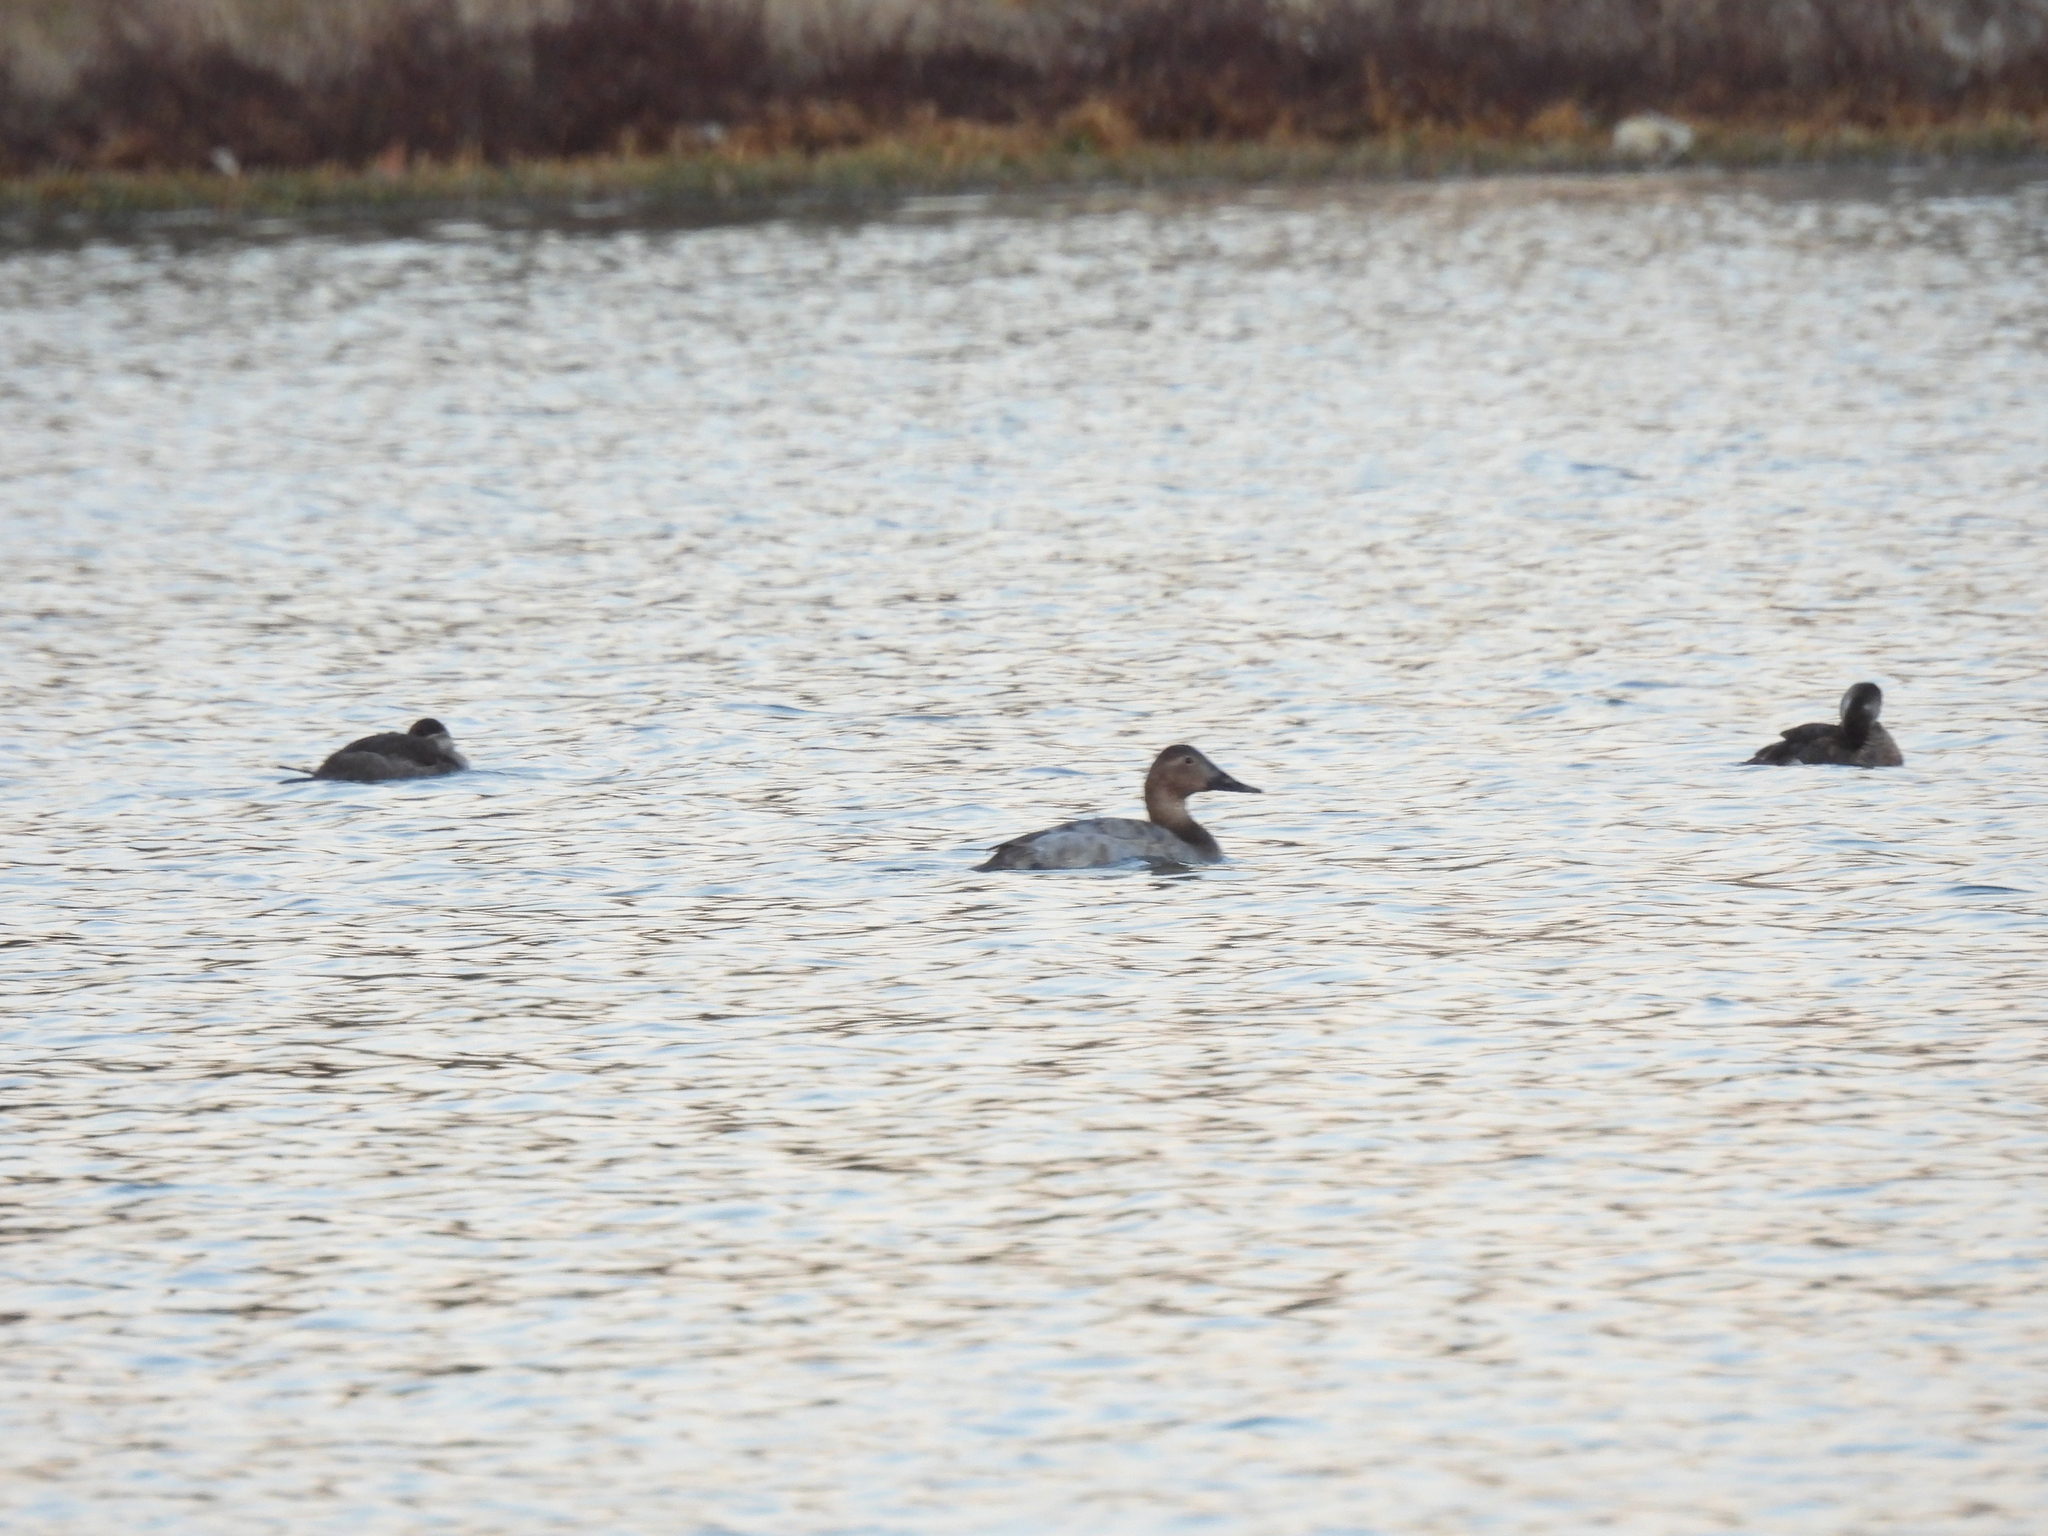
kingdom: Animalia
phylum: Chordata
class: Aves
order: Anseriformes
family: Anatidae
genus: Aythya
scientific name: Aythya valisineria
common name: Canvasback
